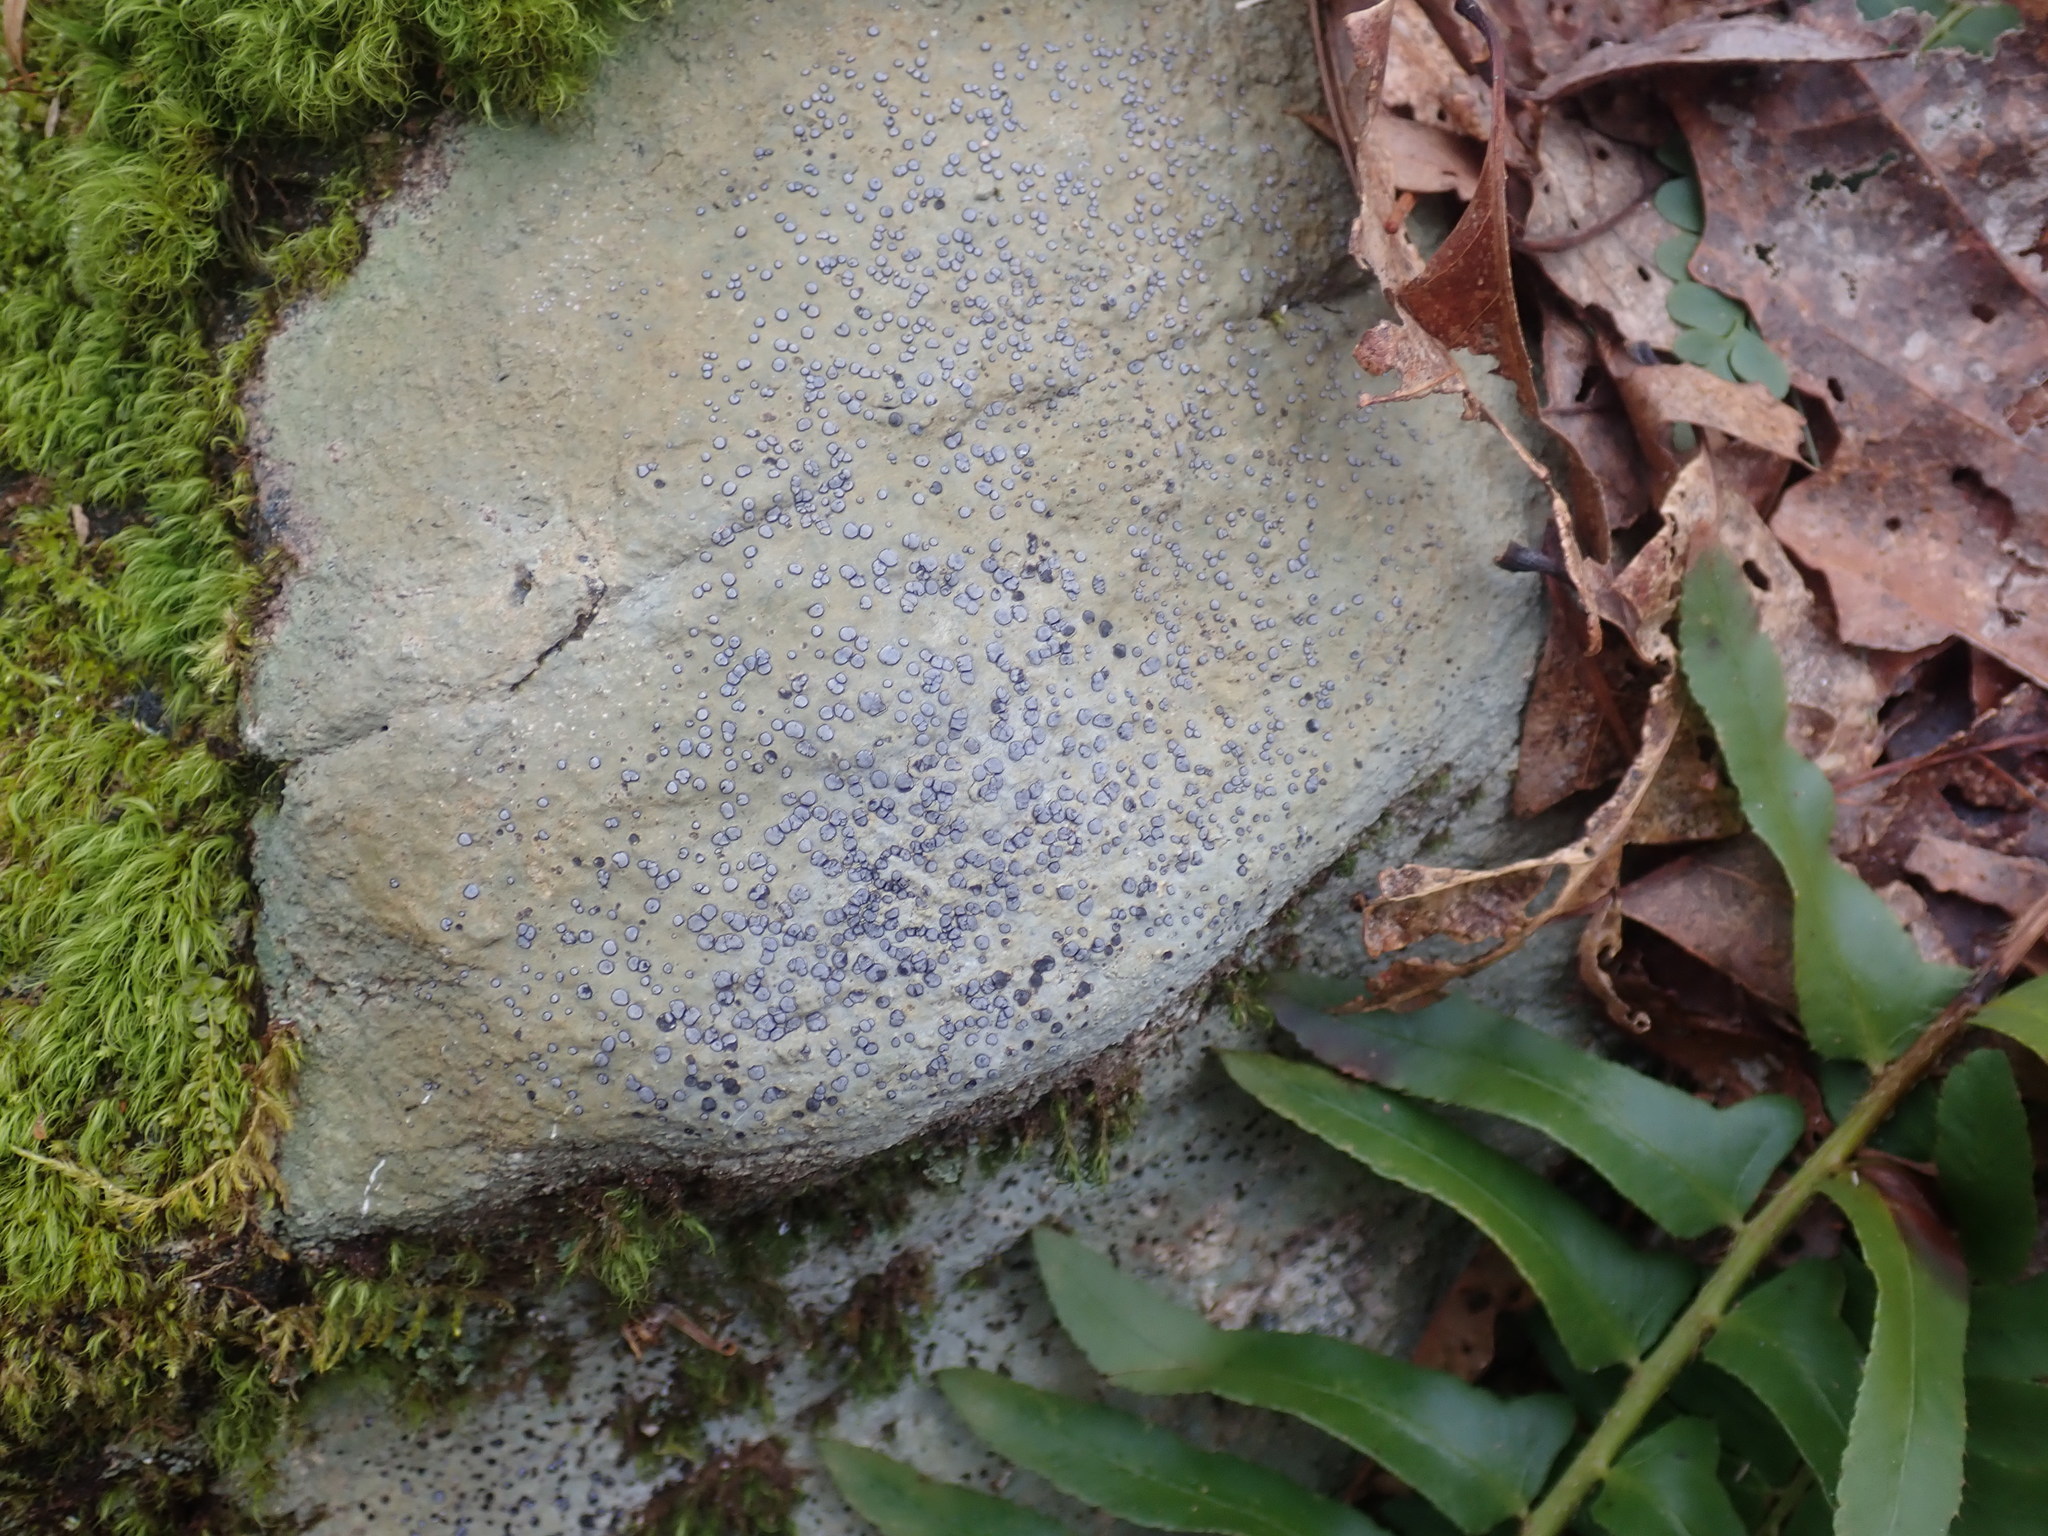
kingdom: Fungi
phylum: Ascomycota
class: Lecanoromycetes
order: Lecideales
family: Lecideaceae
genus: Porpidia
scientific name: Porpidia albocaerulescens
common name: Smokey-eyed boulder lichen
